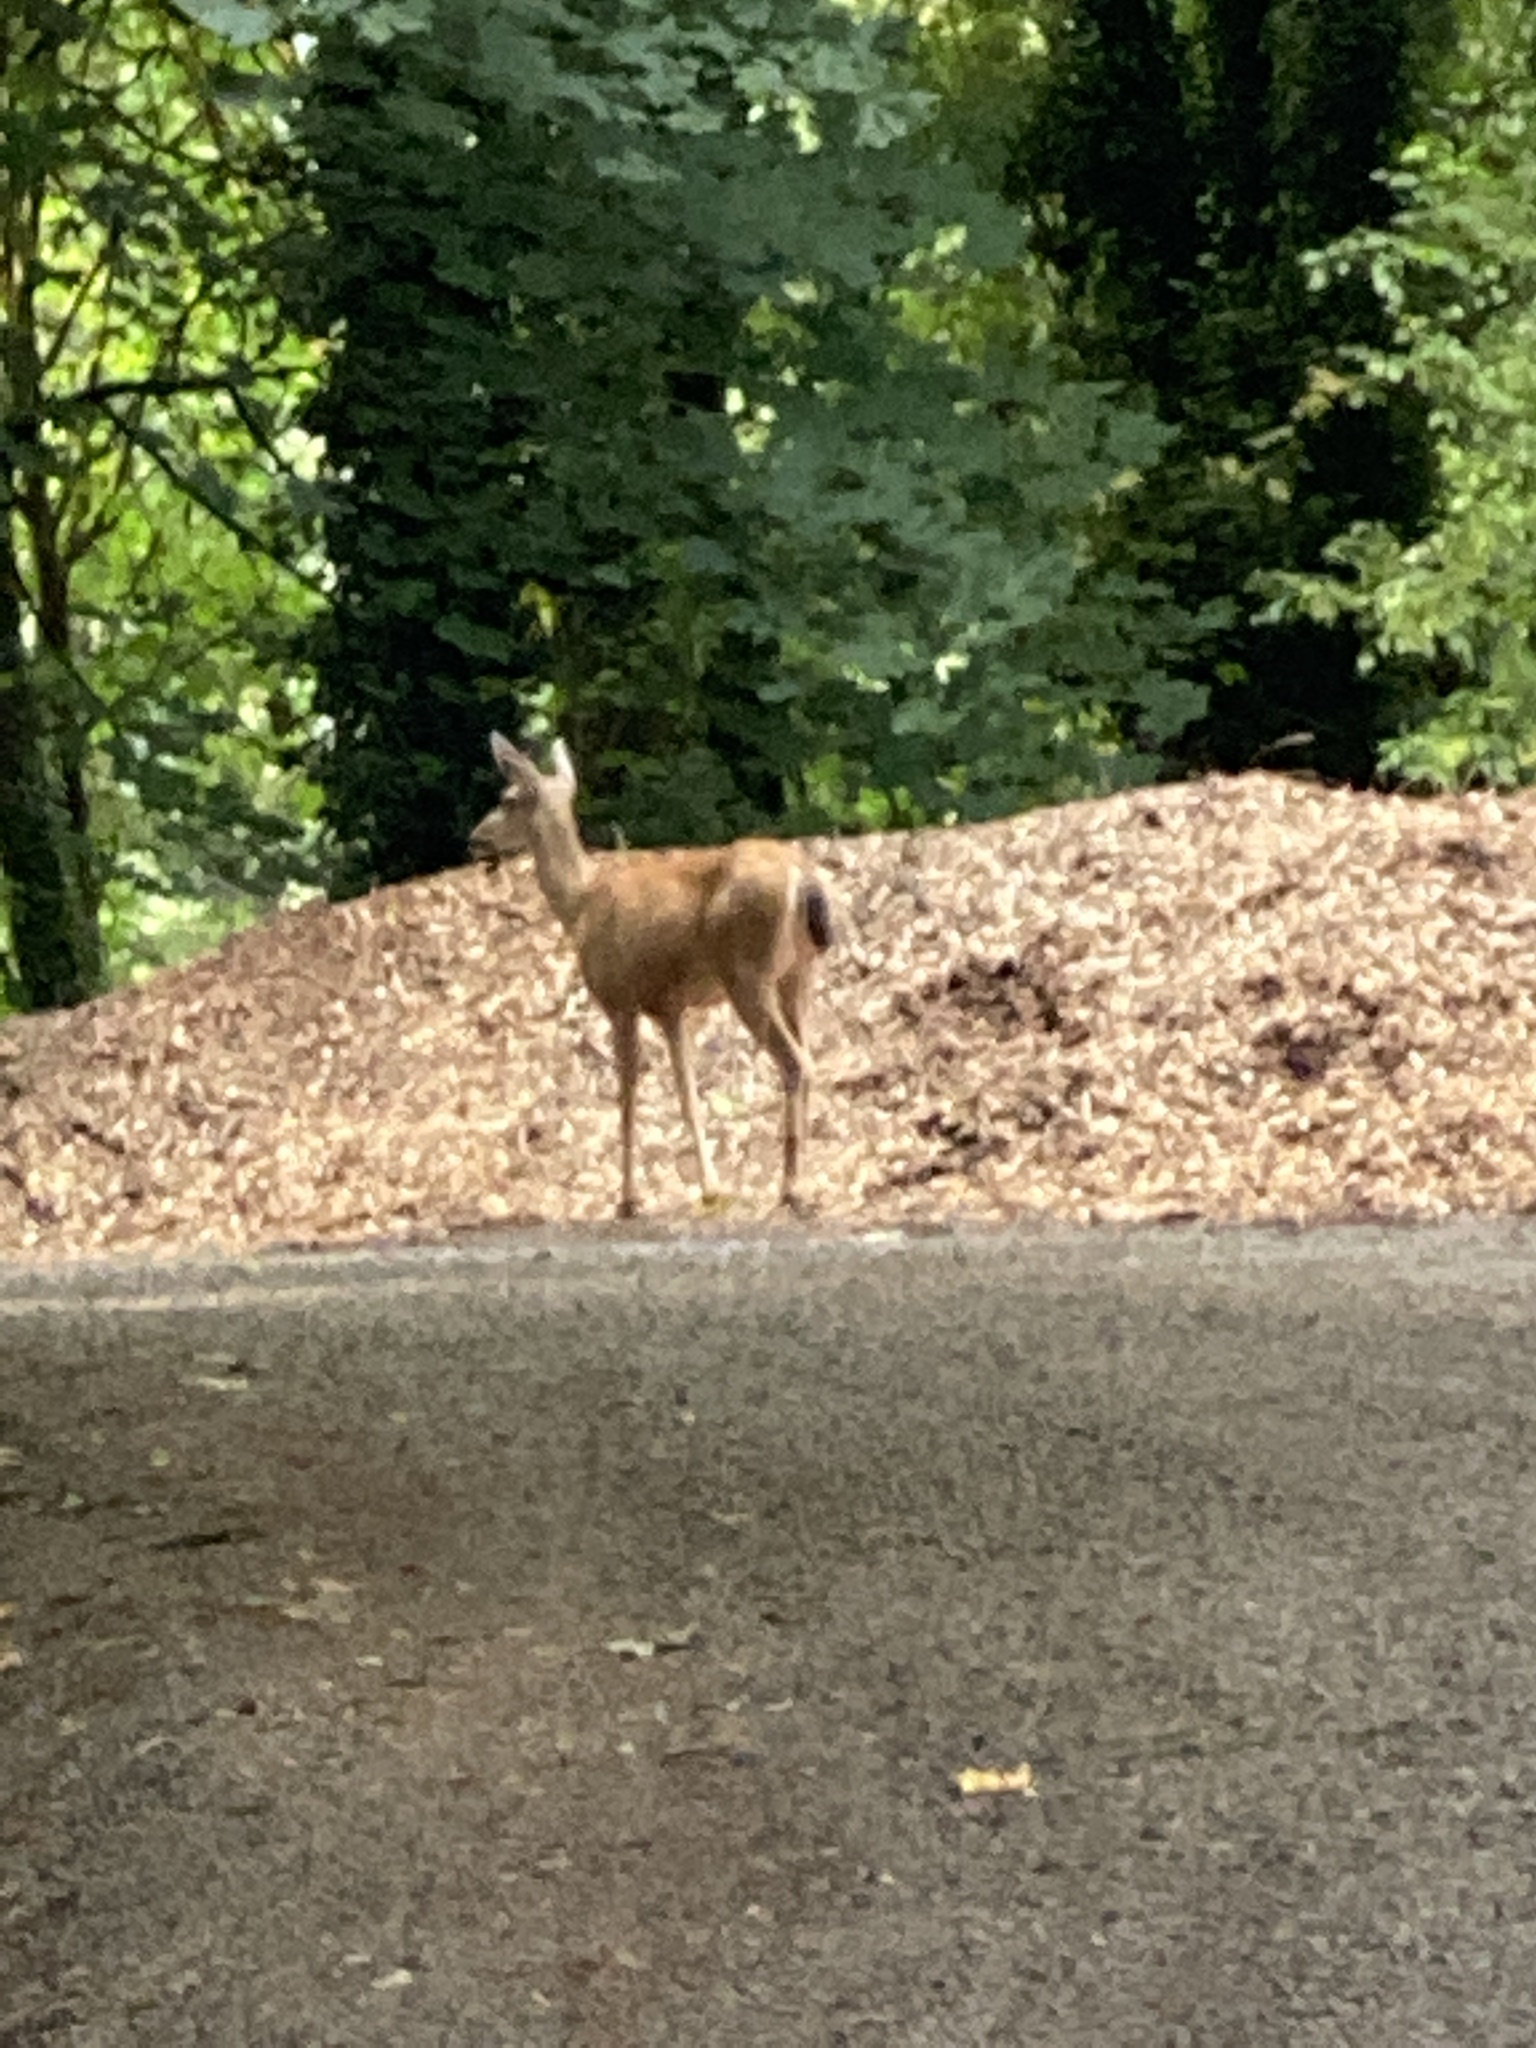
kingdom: Animalia
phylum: Chordata
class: Mammalia
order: Artiodactyla
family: Cervidae
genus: Odocoileus
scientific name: Odocoileus hemionus
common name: Mule deer
